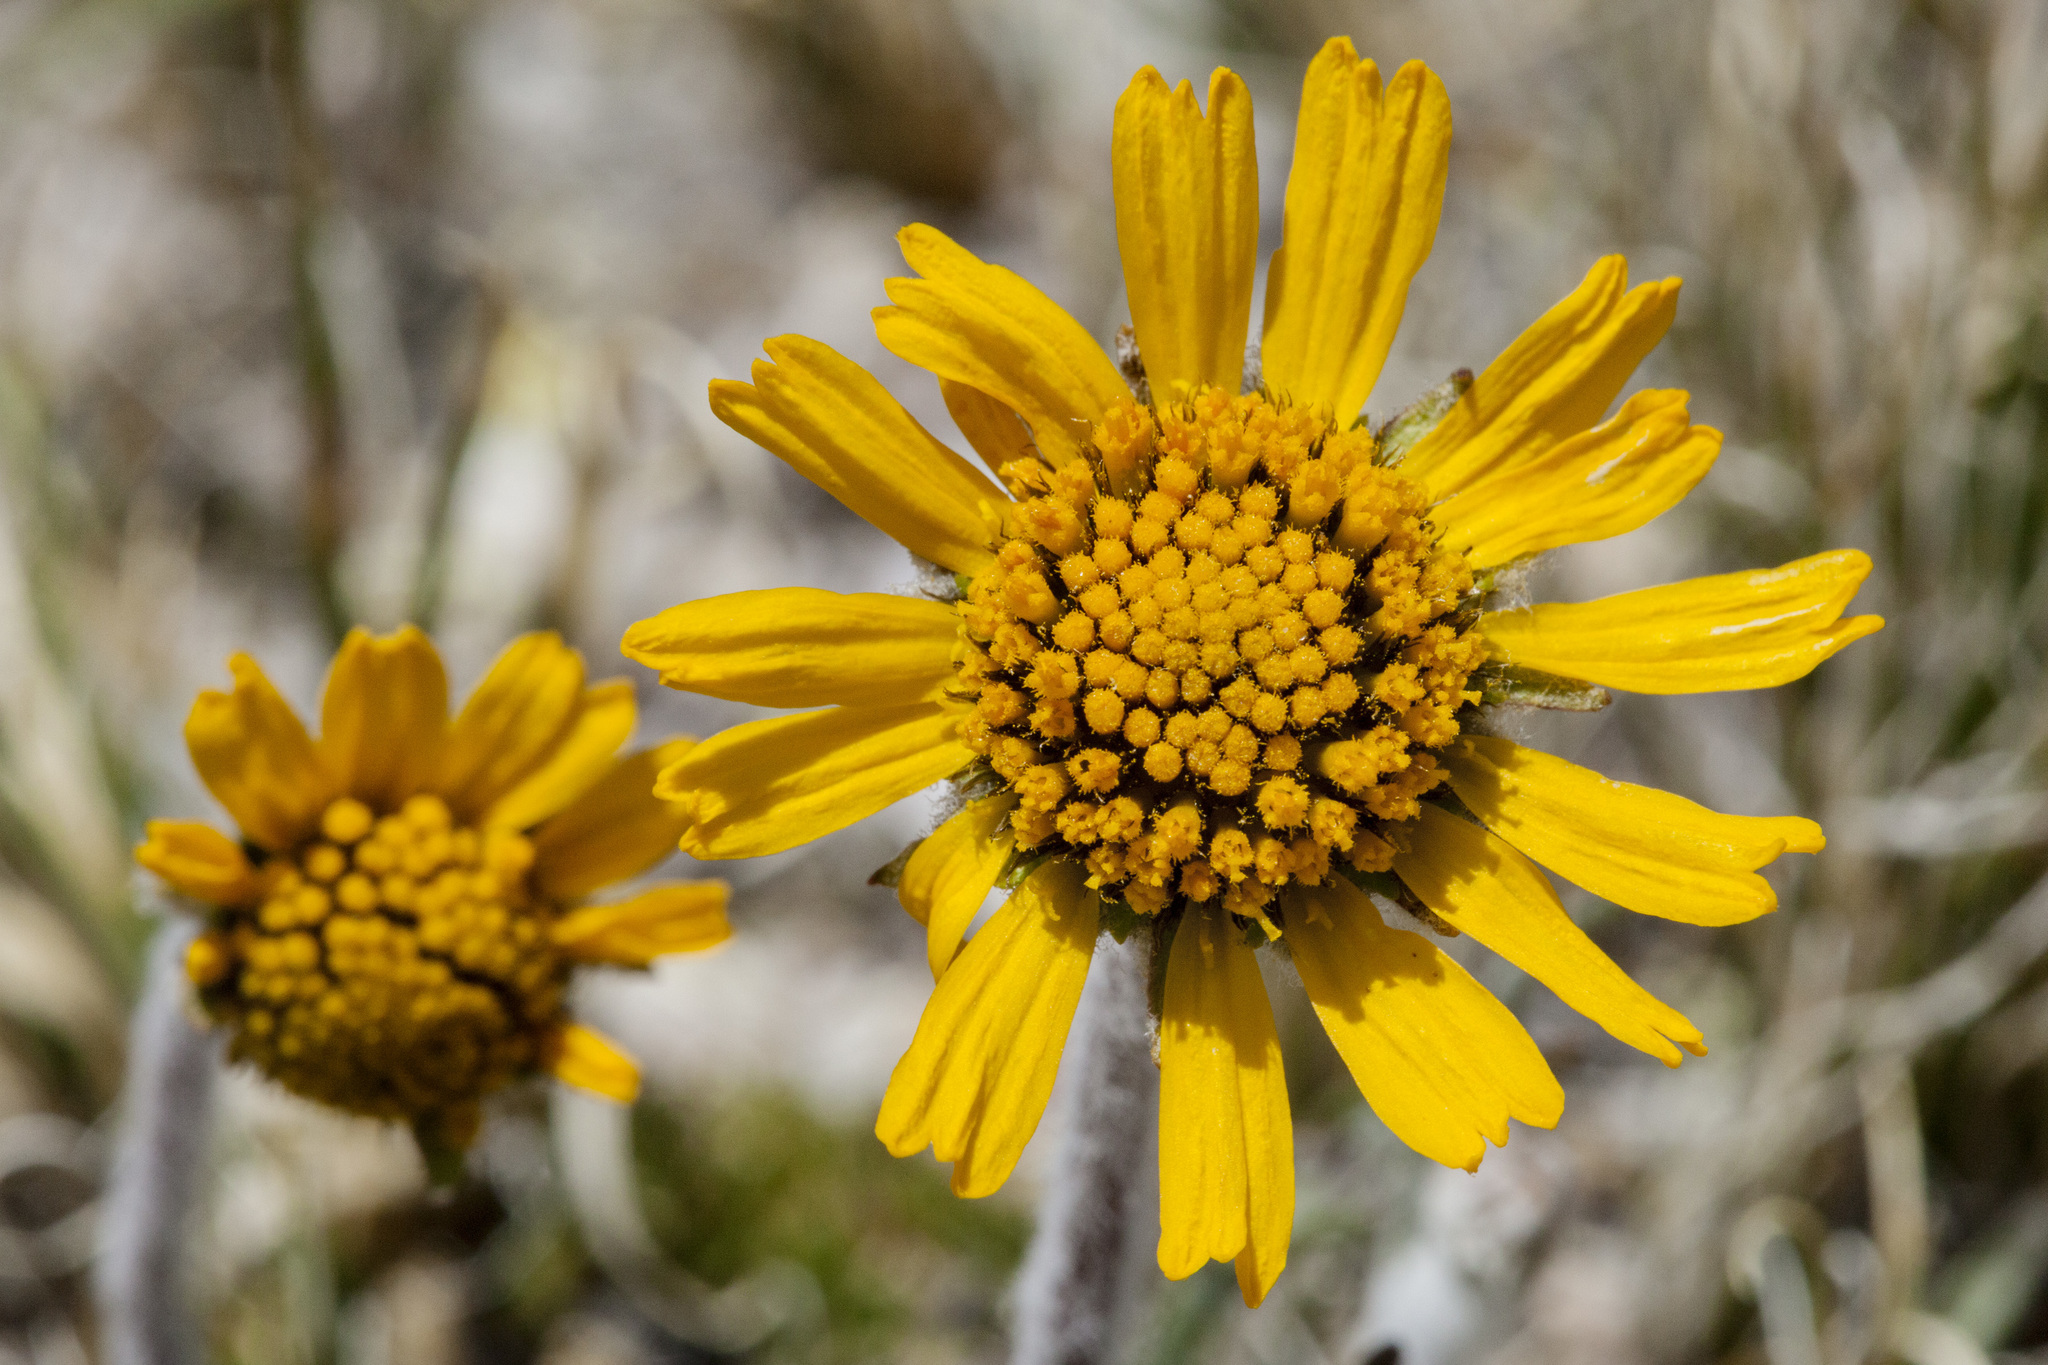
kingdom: Plantae
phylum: Tracheophyta
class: Magnoliopsida
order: Asterales
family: Asteraceae
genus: Hymenoxys
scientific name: Hymenoxys brandegeei
